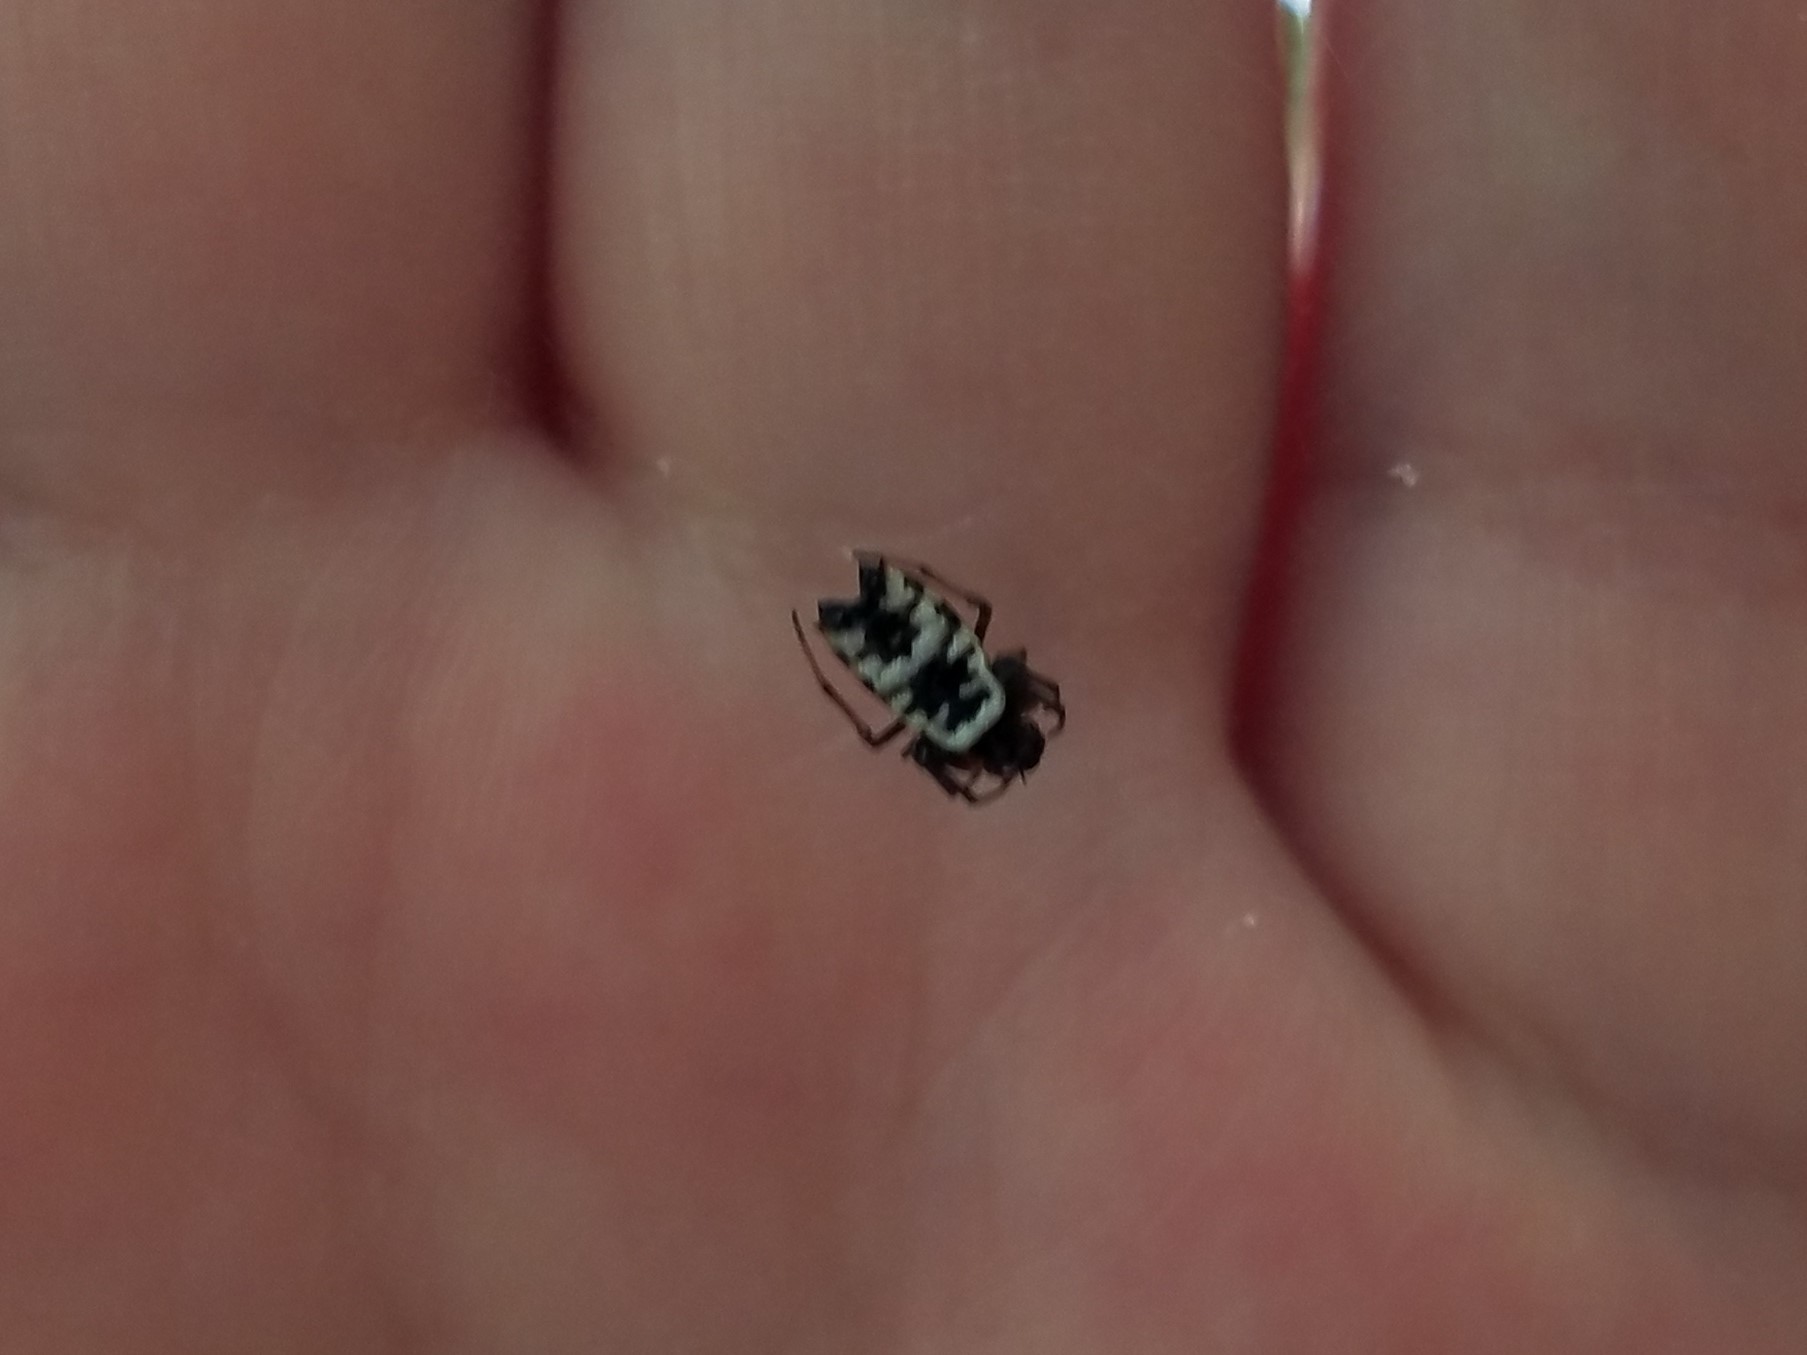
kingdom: Animalia
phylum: Arthropoda
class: Arachnida
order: Araneae
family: Araneidae
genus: Micrathena
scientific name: Micrathena mitrata
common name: Orb weavers
